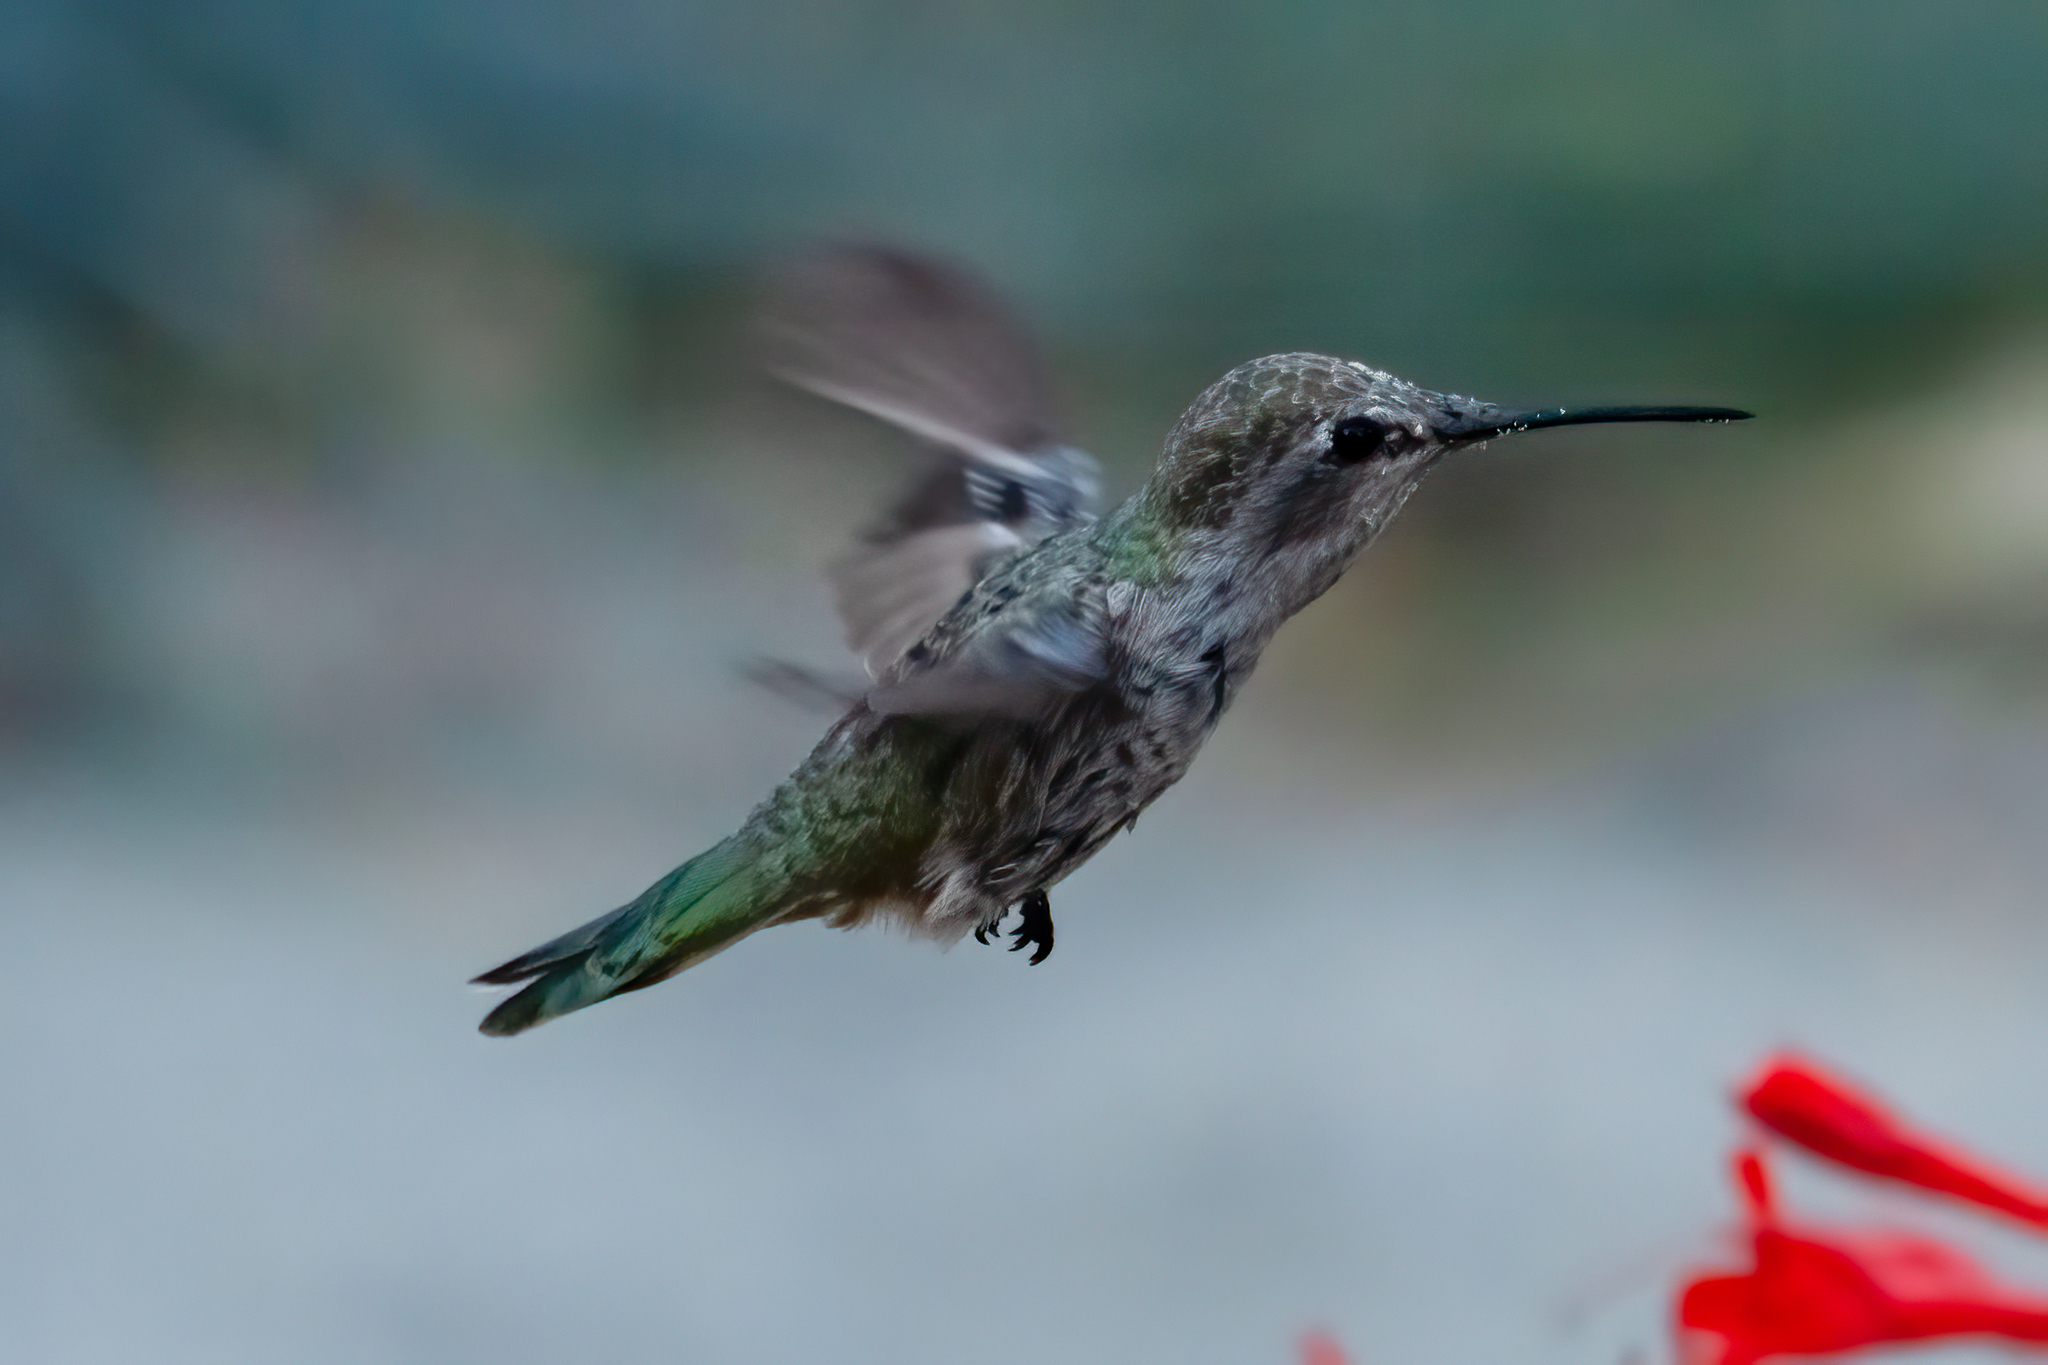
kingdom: Animalia
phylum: Chordata
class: Aves
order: Apodiformes
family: Trochilidae
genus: Calypte
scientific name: Calypte anna
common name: Anna's hummingbird
